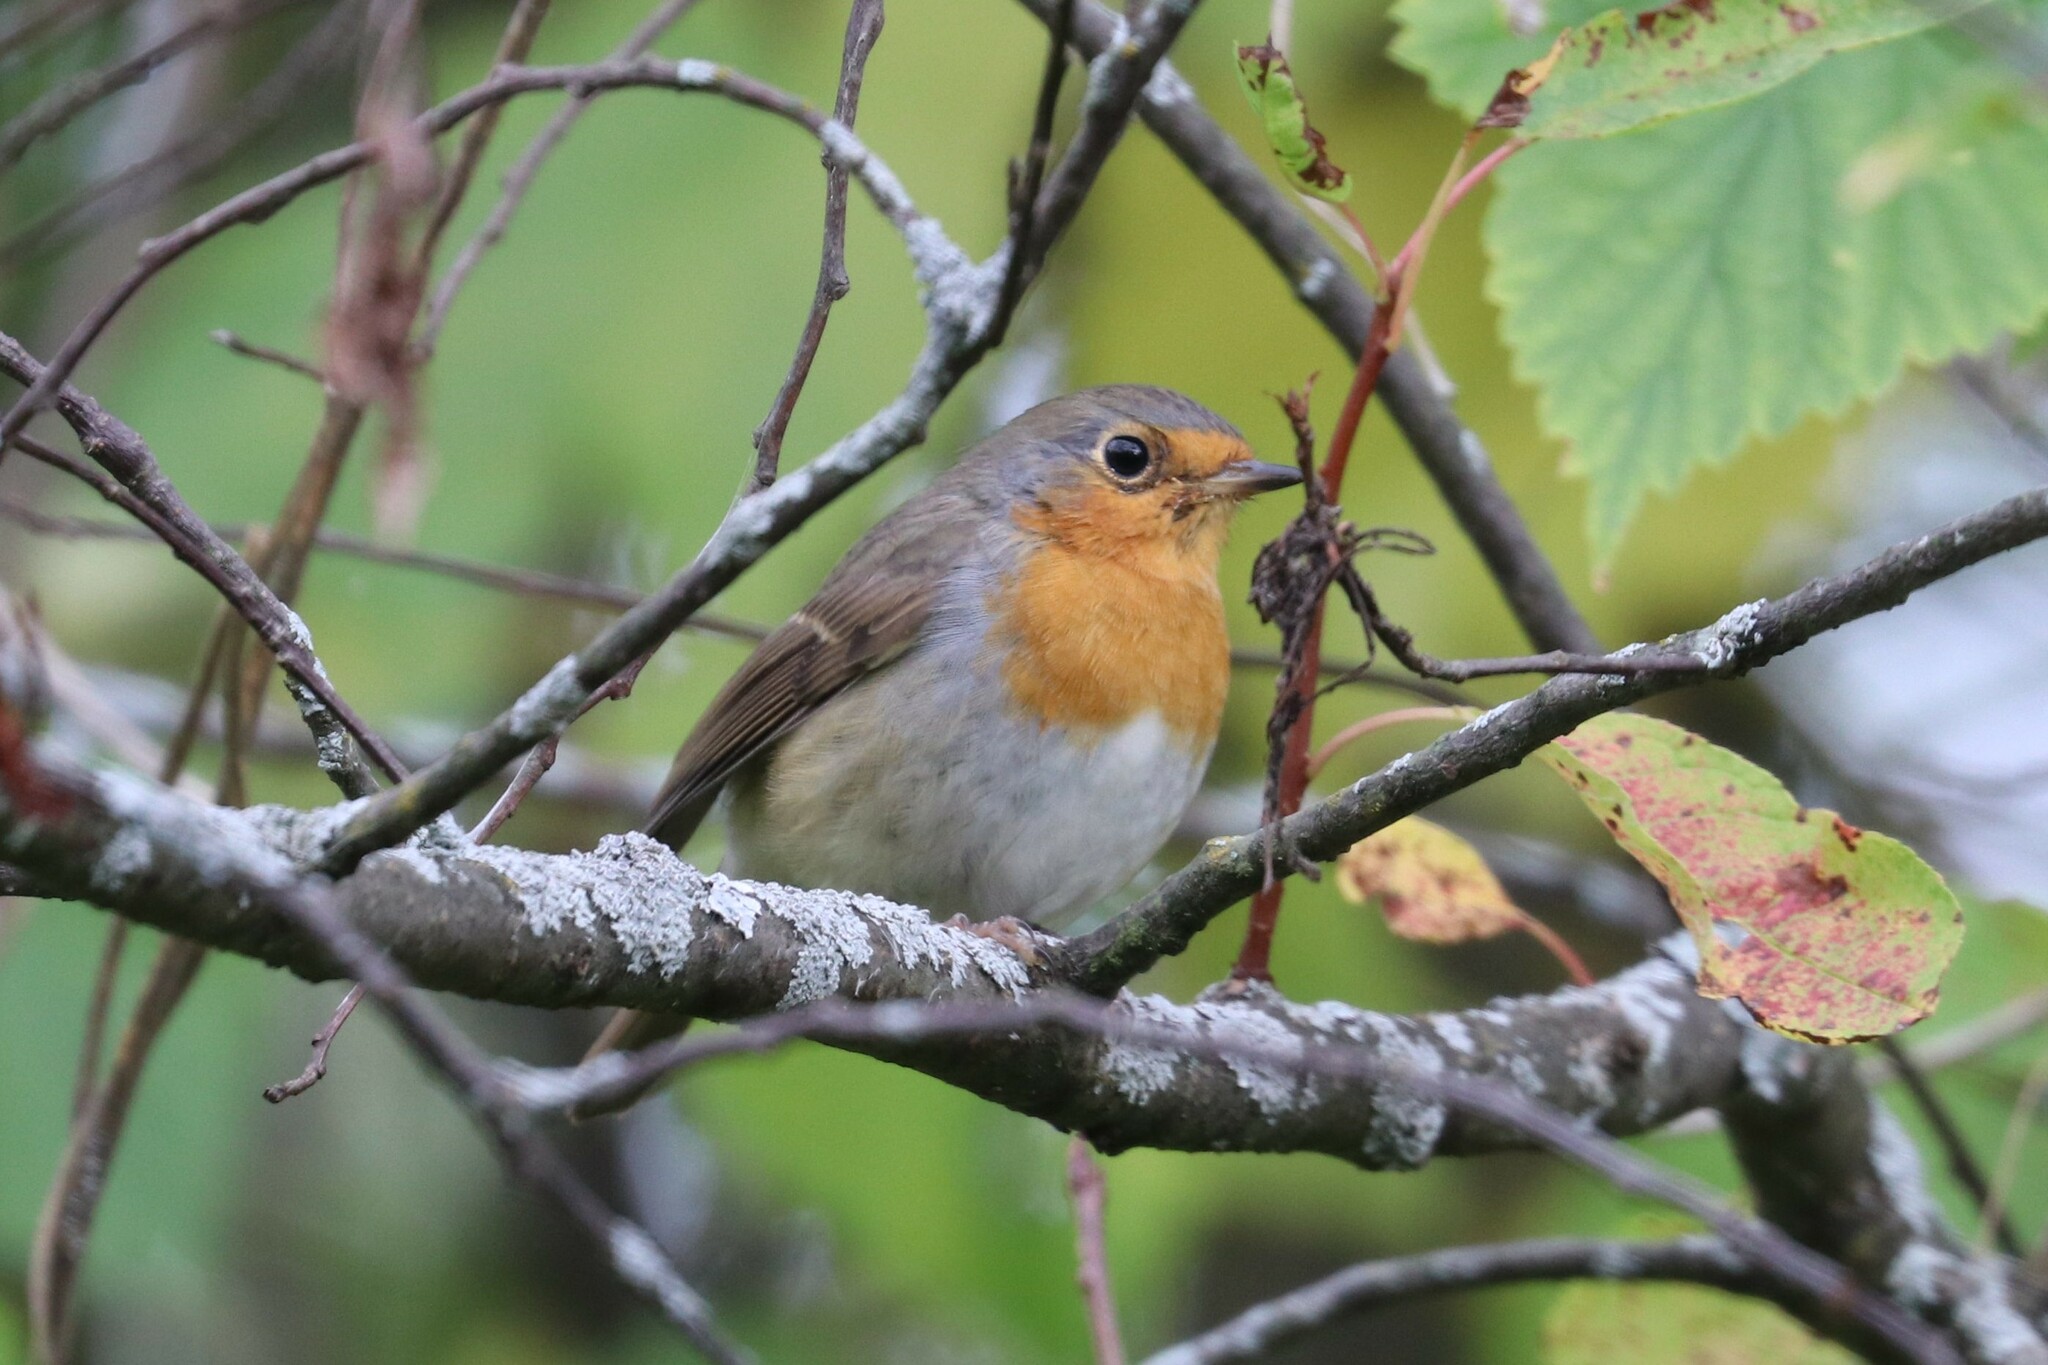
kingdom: Animalia
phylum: Chordata
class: Aves
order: Passeriformes
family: Muscicapidae
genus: Erithacus
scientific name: Erithacus rubecula
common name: European robin
